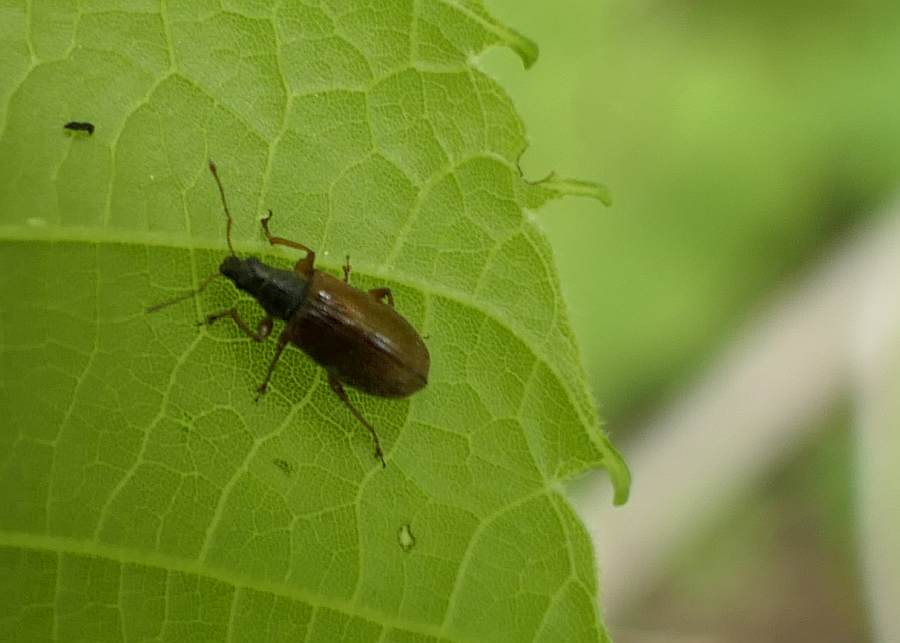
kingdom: Animalia
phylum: Arthropoda
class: Insecta
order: Coleoptera
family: Curculionidae
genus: Phyllobius
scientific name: Phyllobius oblongus
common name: Brown leaf weevil
